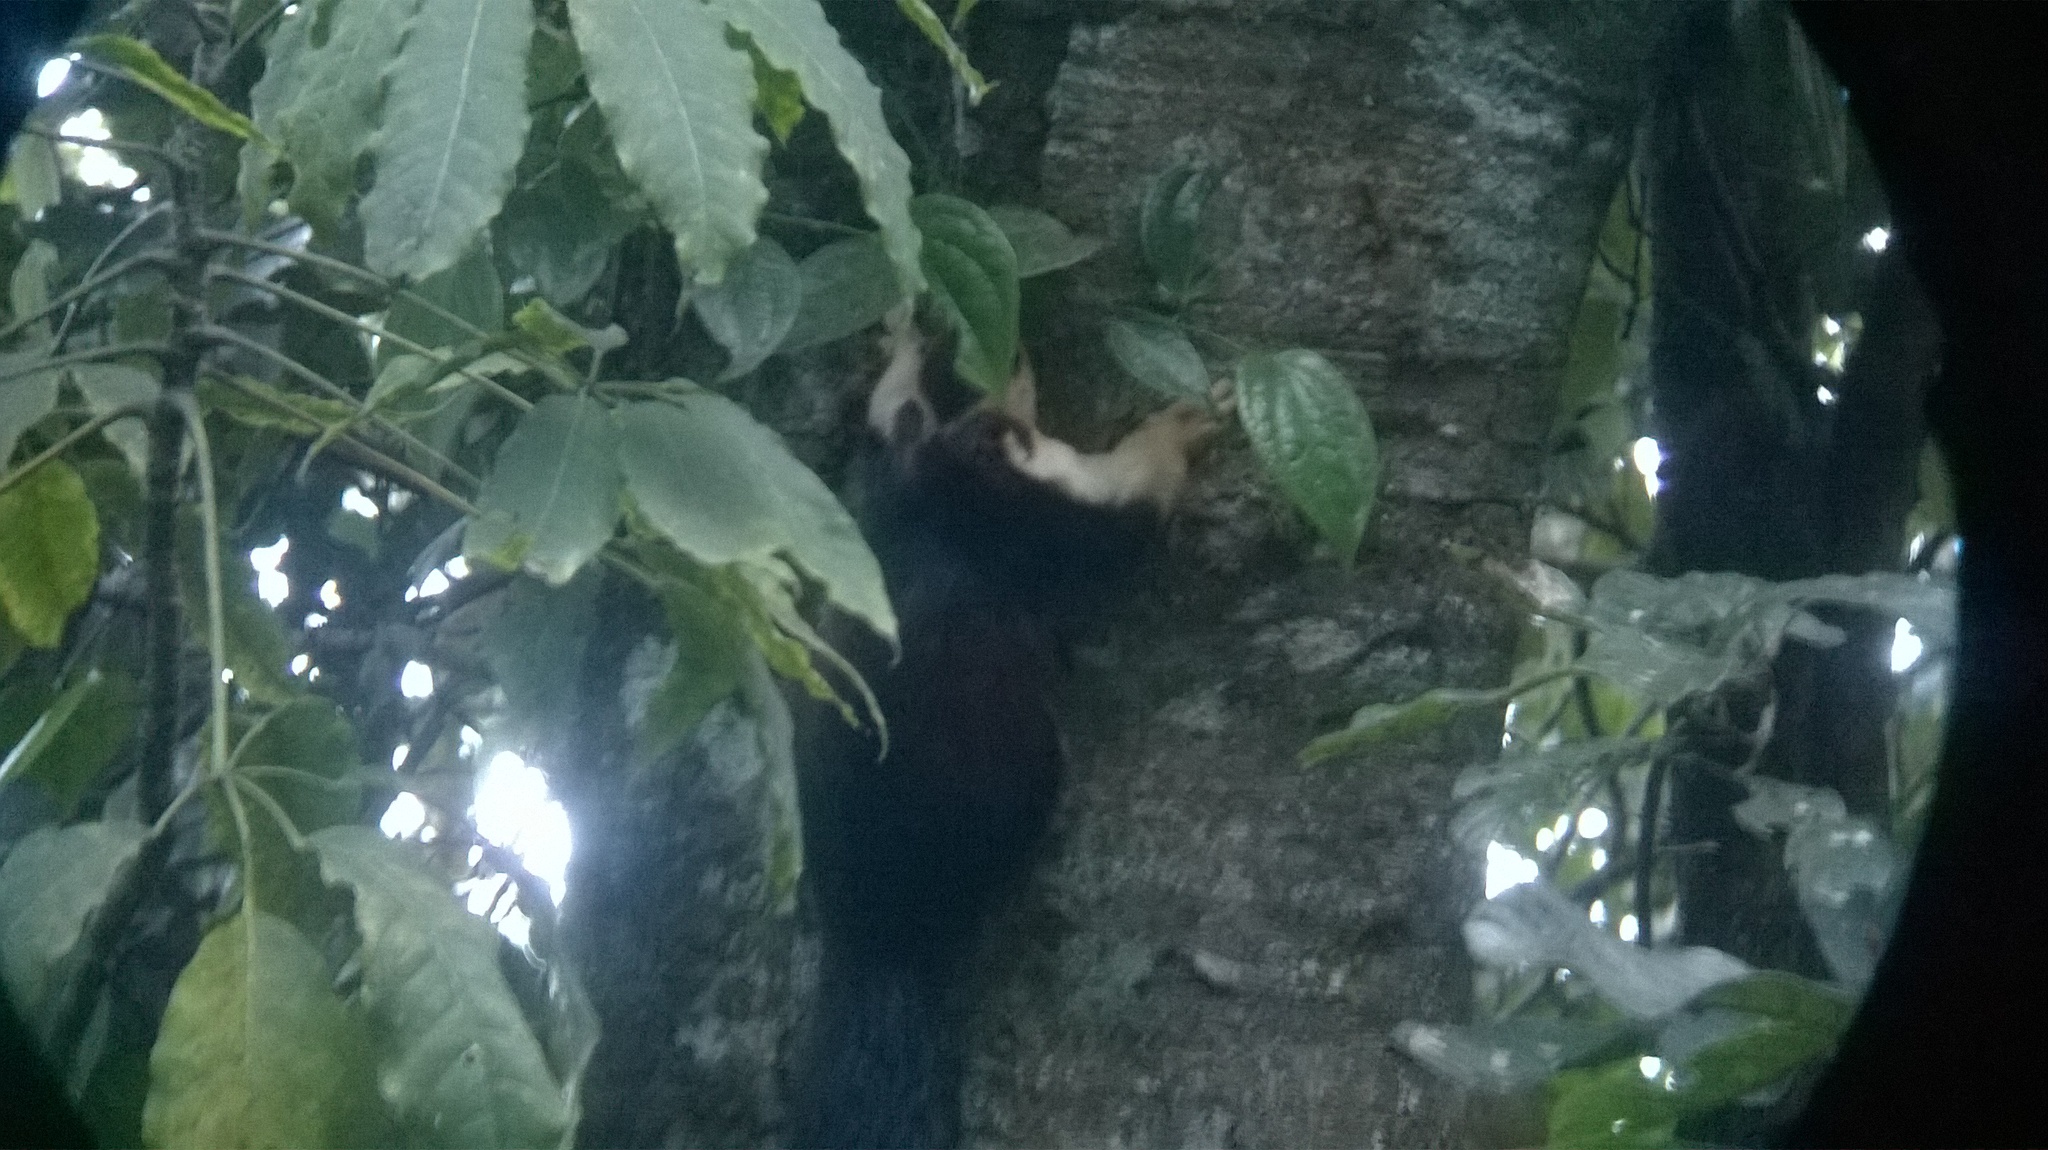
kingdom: Animalia
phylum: Chordata
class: Mammalia
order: Rodentia
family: Sciuridae
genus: Ratufa
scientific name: Ratufa indica
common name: Indian giant squirrel
